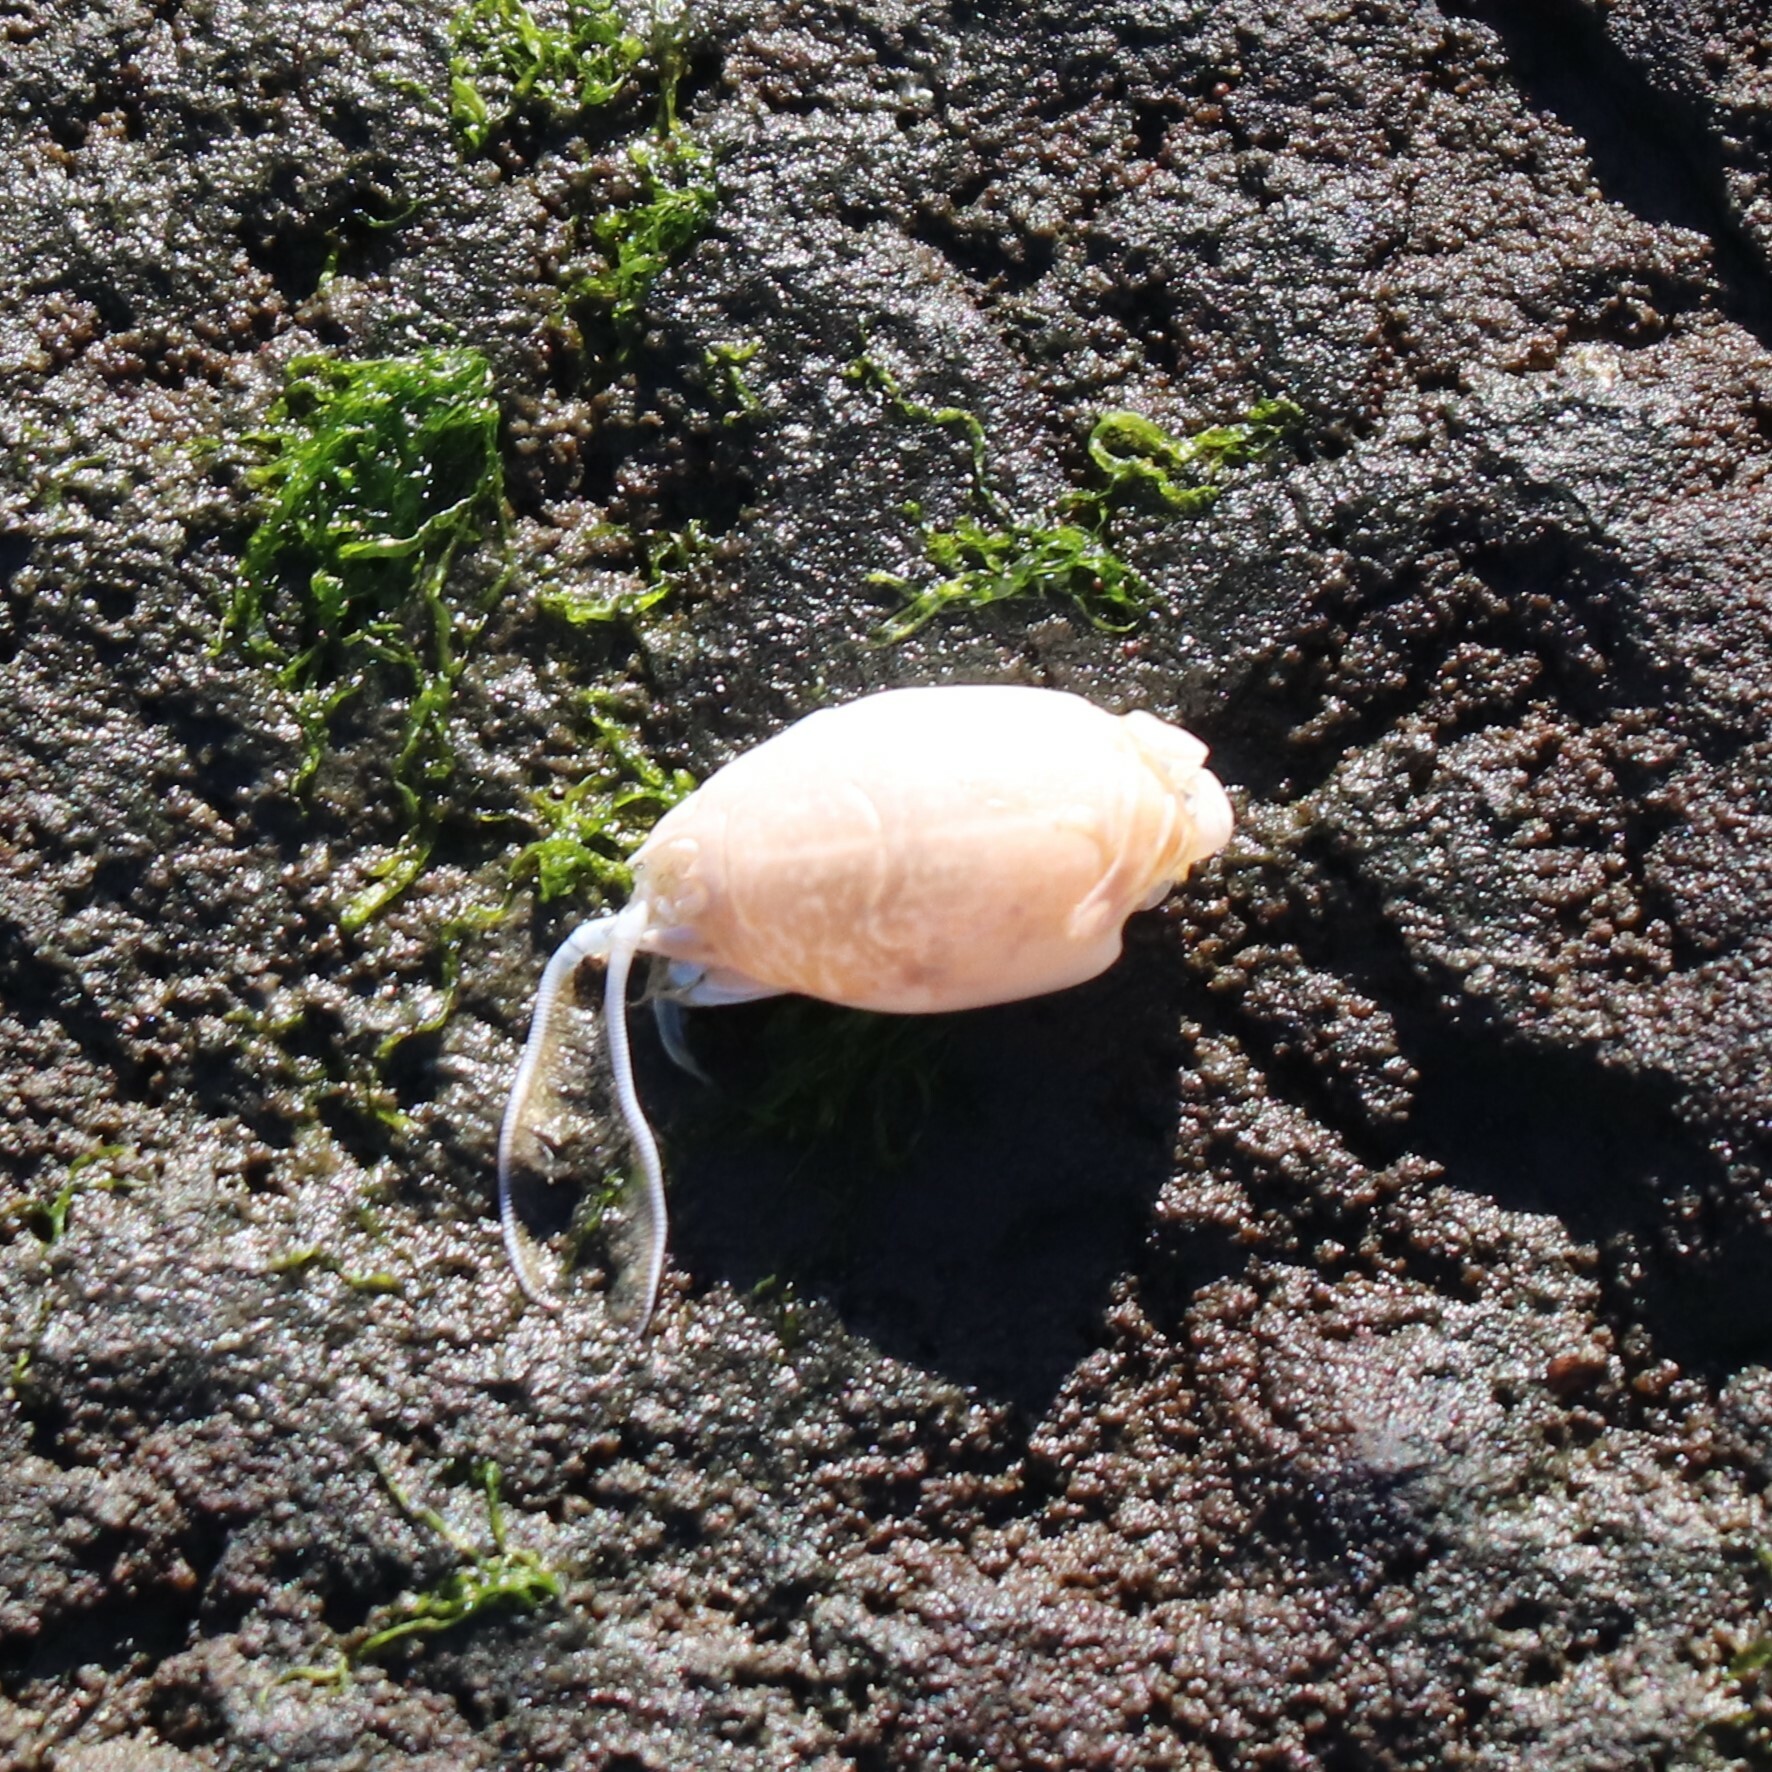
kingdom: Animalia
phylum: Arthropoda
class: Malacostraca
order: Decapoda
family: Hippidae
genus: Emerita
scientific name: Emerita talpoida
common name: Atlantic sand crab
